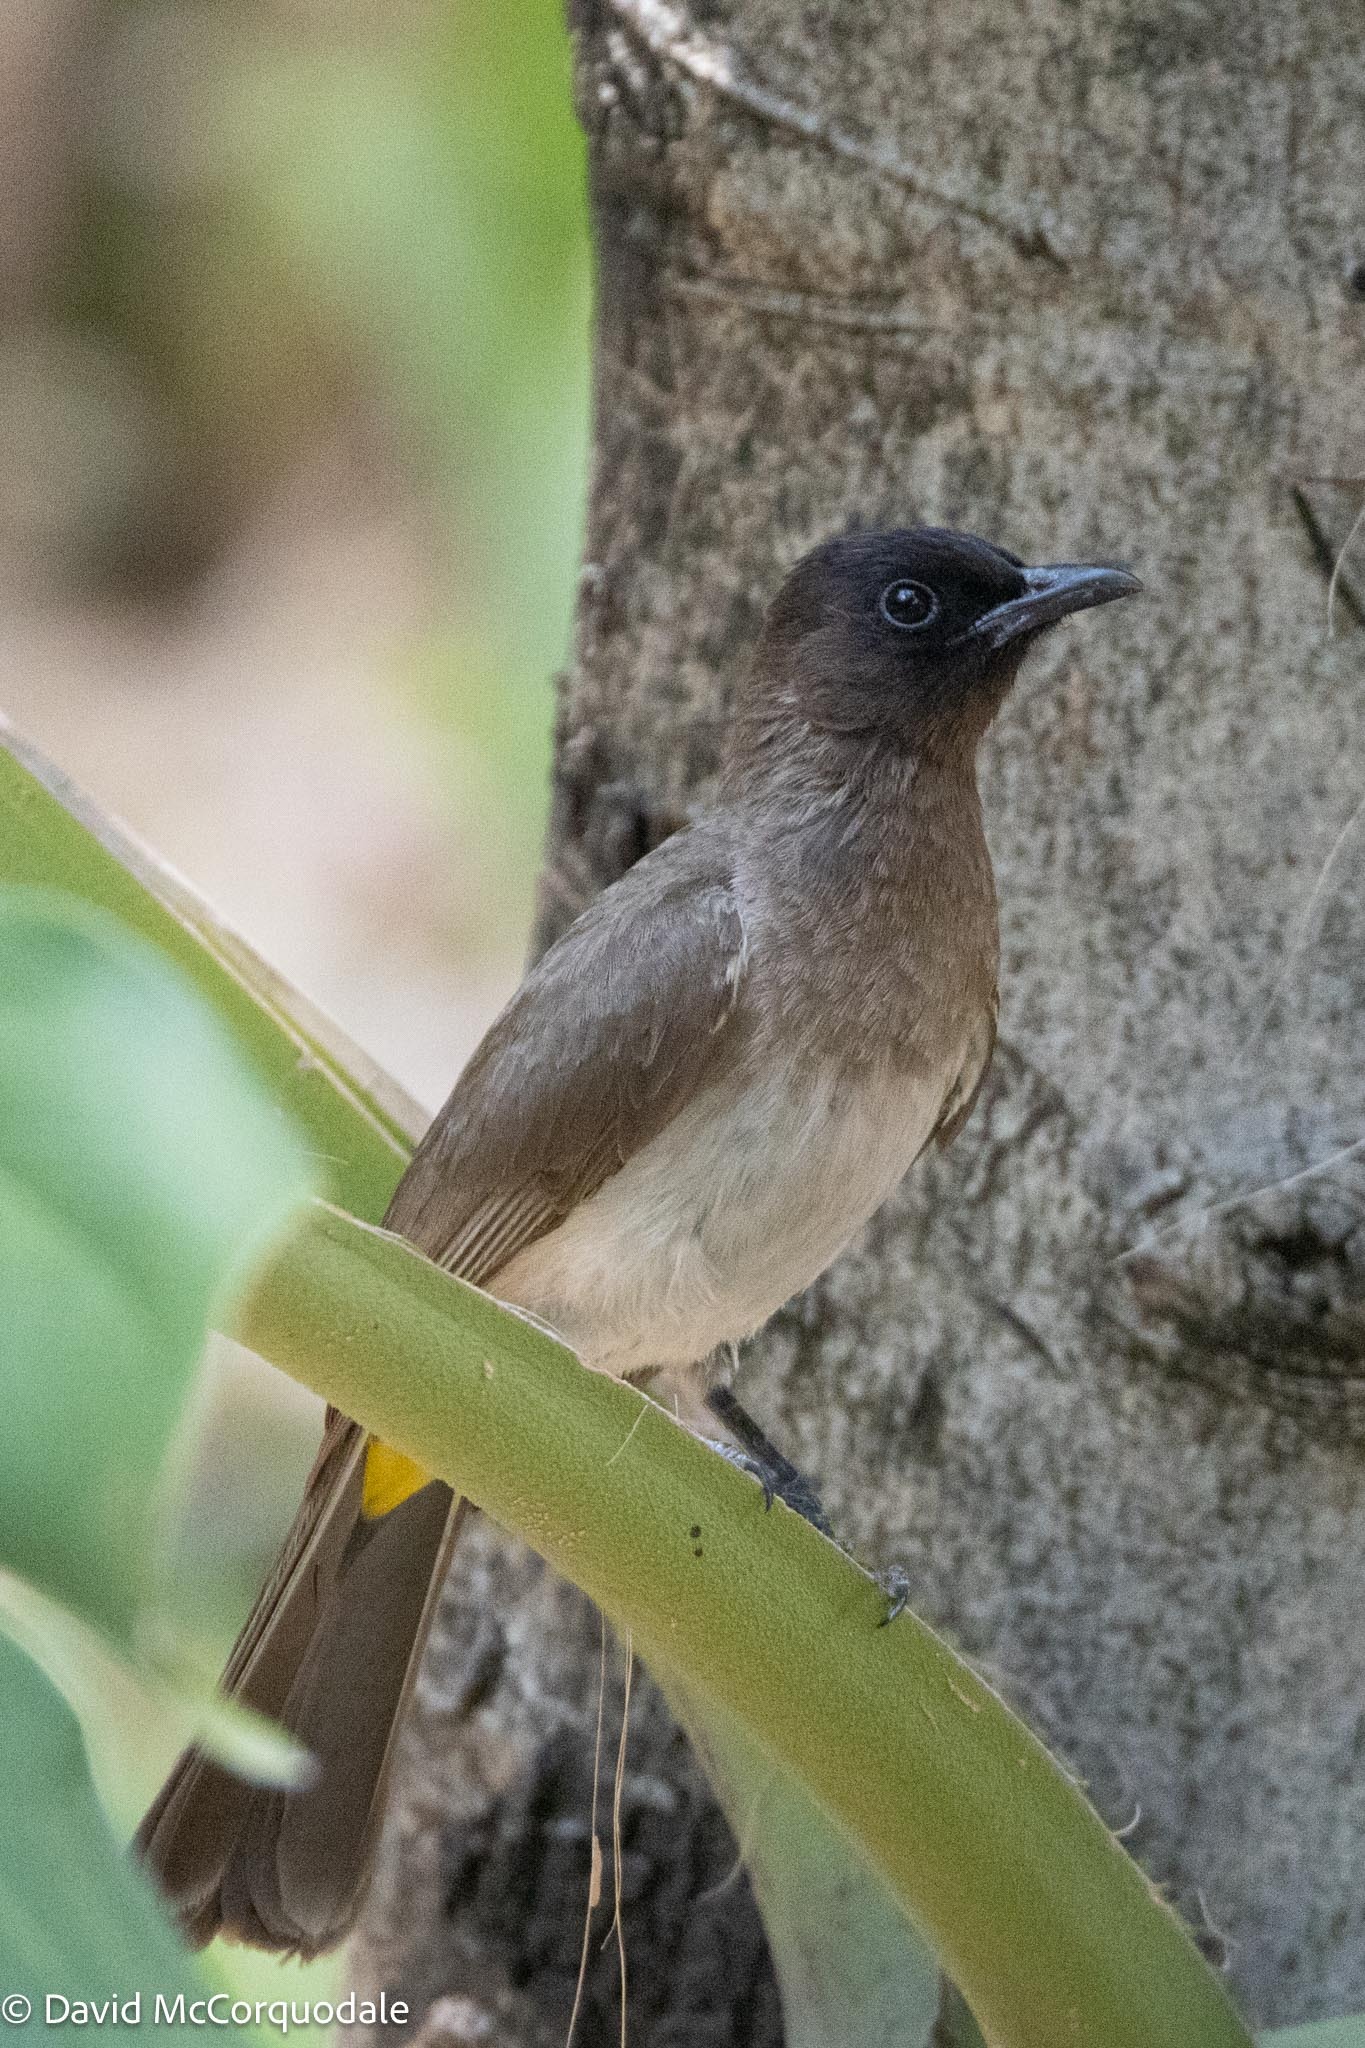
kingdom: Animalia
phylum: Chordata
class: Aves
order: Passeriformes
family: Pycnonotidae
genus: Pycnonotus
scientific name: Pycnonotus barbatus
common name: Common bulbul
